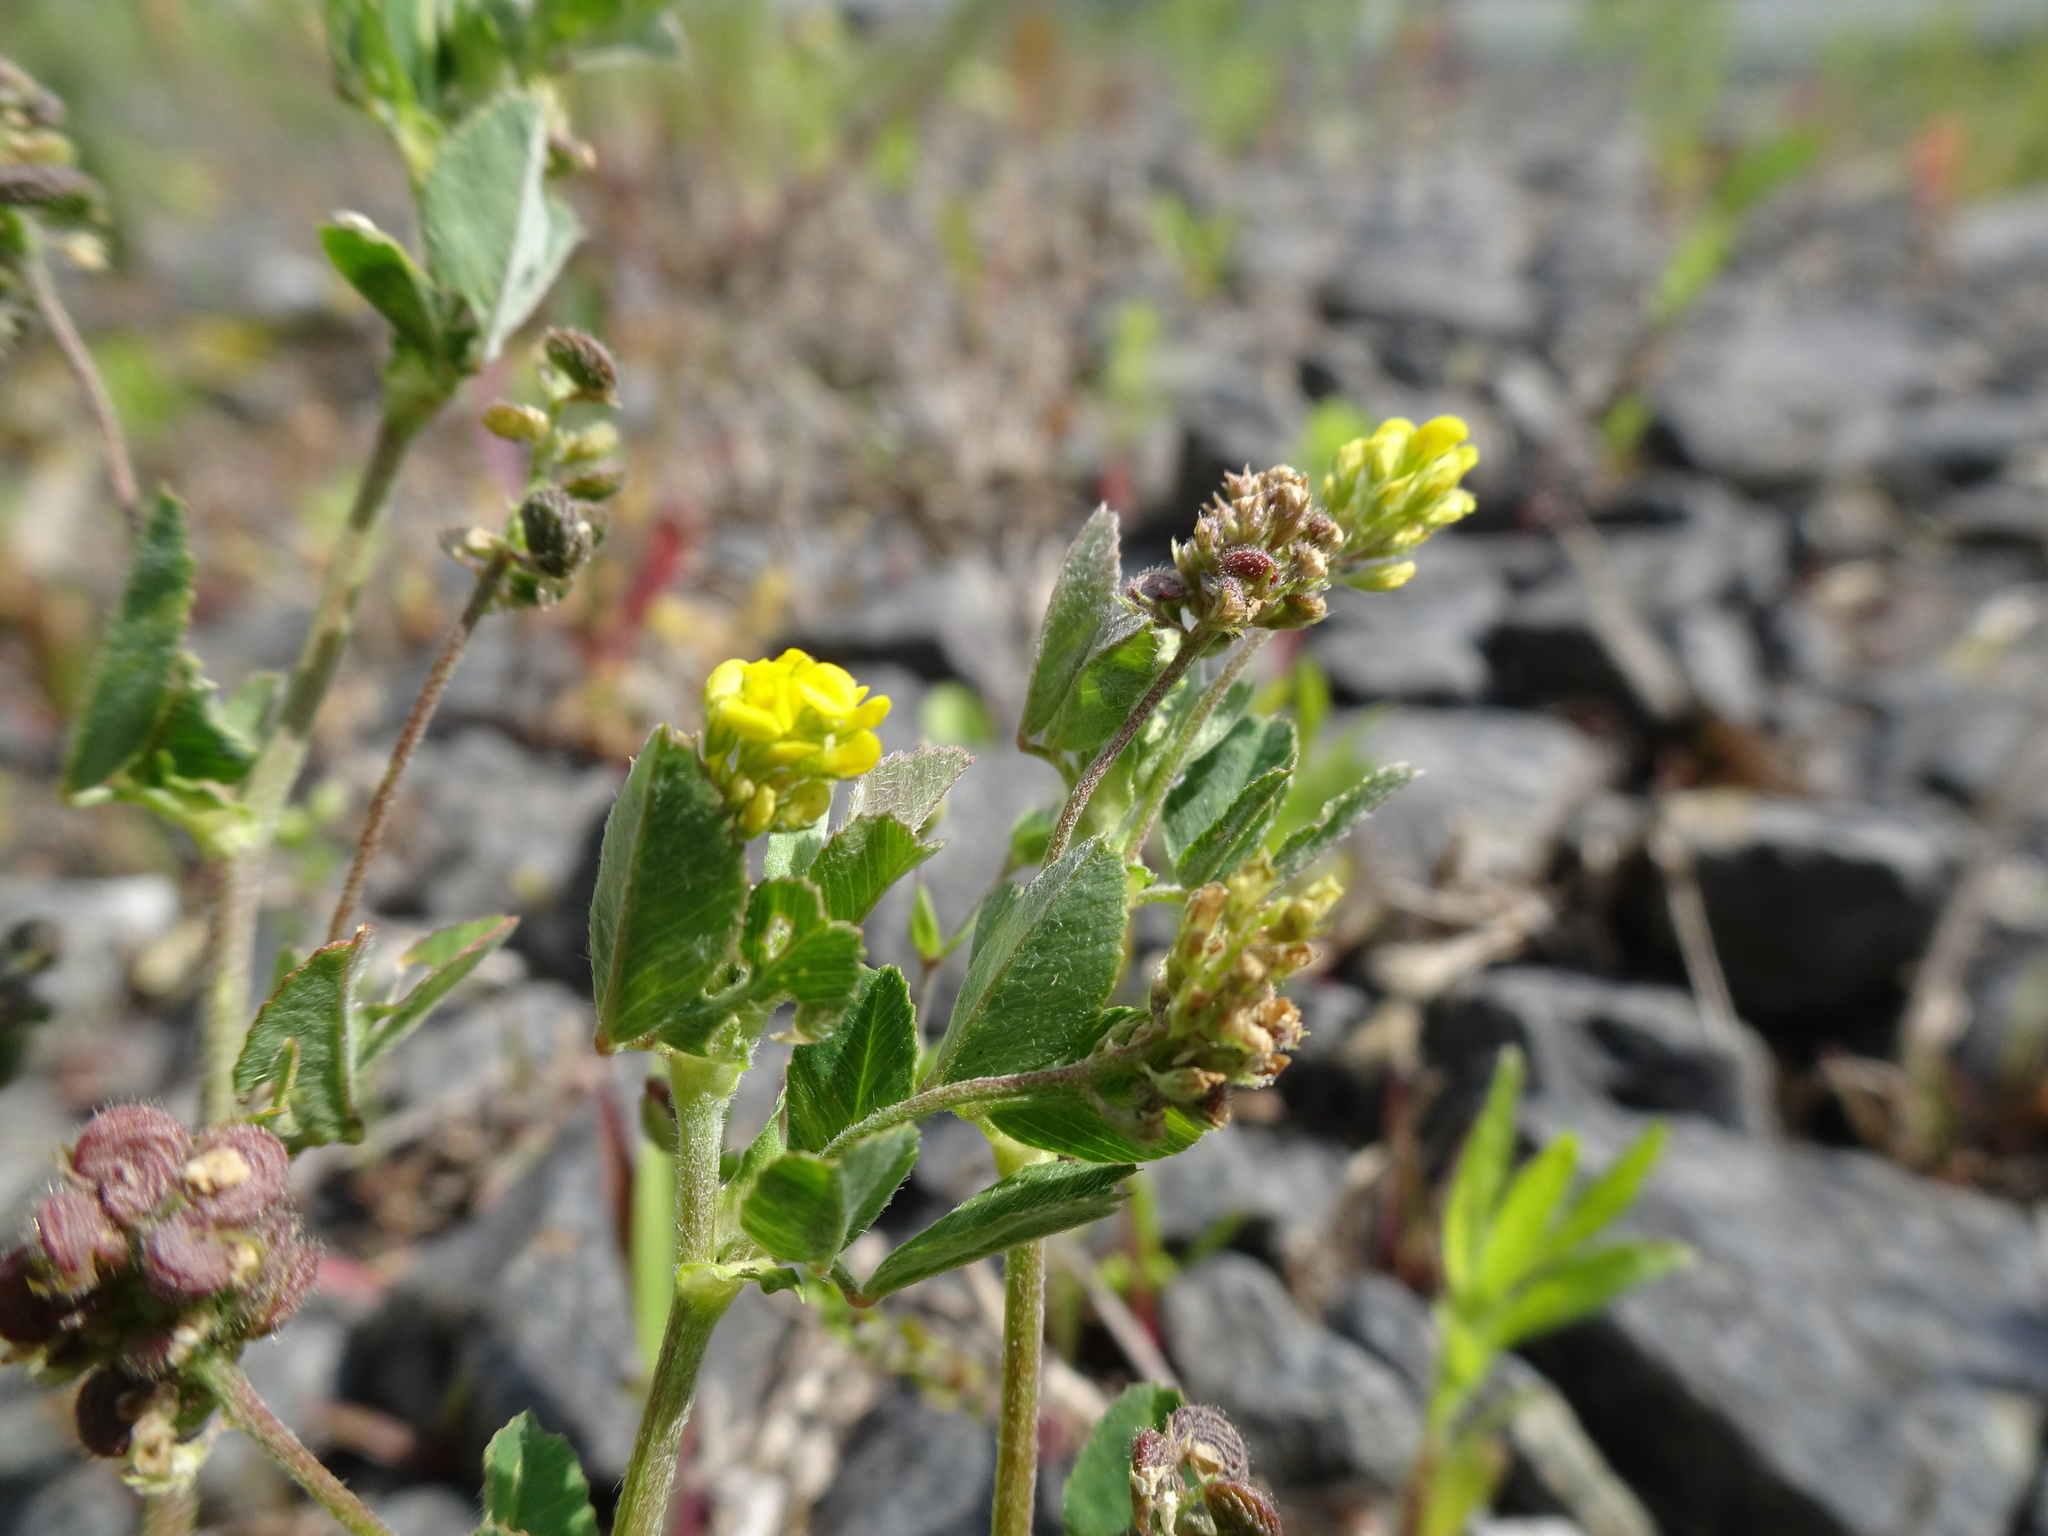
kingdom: Plantae
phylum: Tracheophyta
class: Magnoliopsida
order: Fabales
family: Fabaceae
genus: Medicago
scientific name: Medicago lupulina
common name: Black medick
